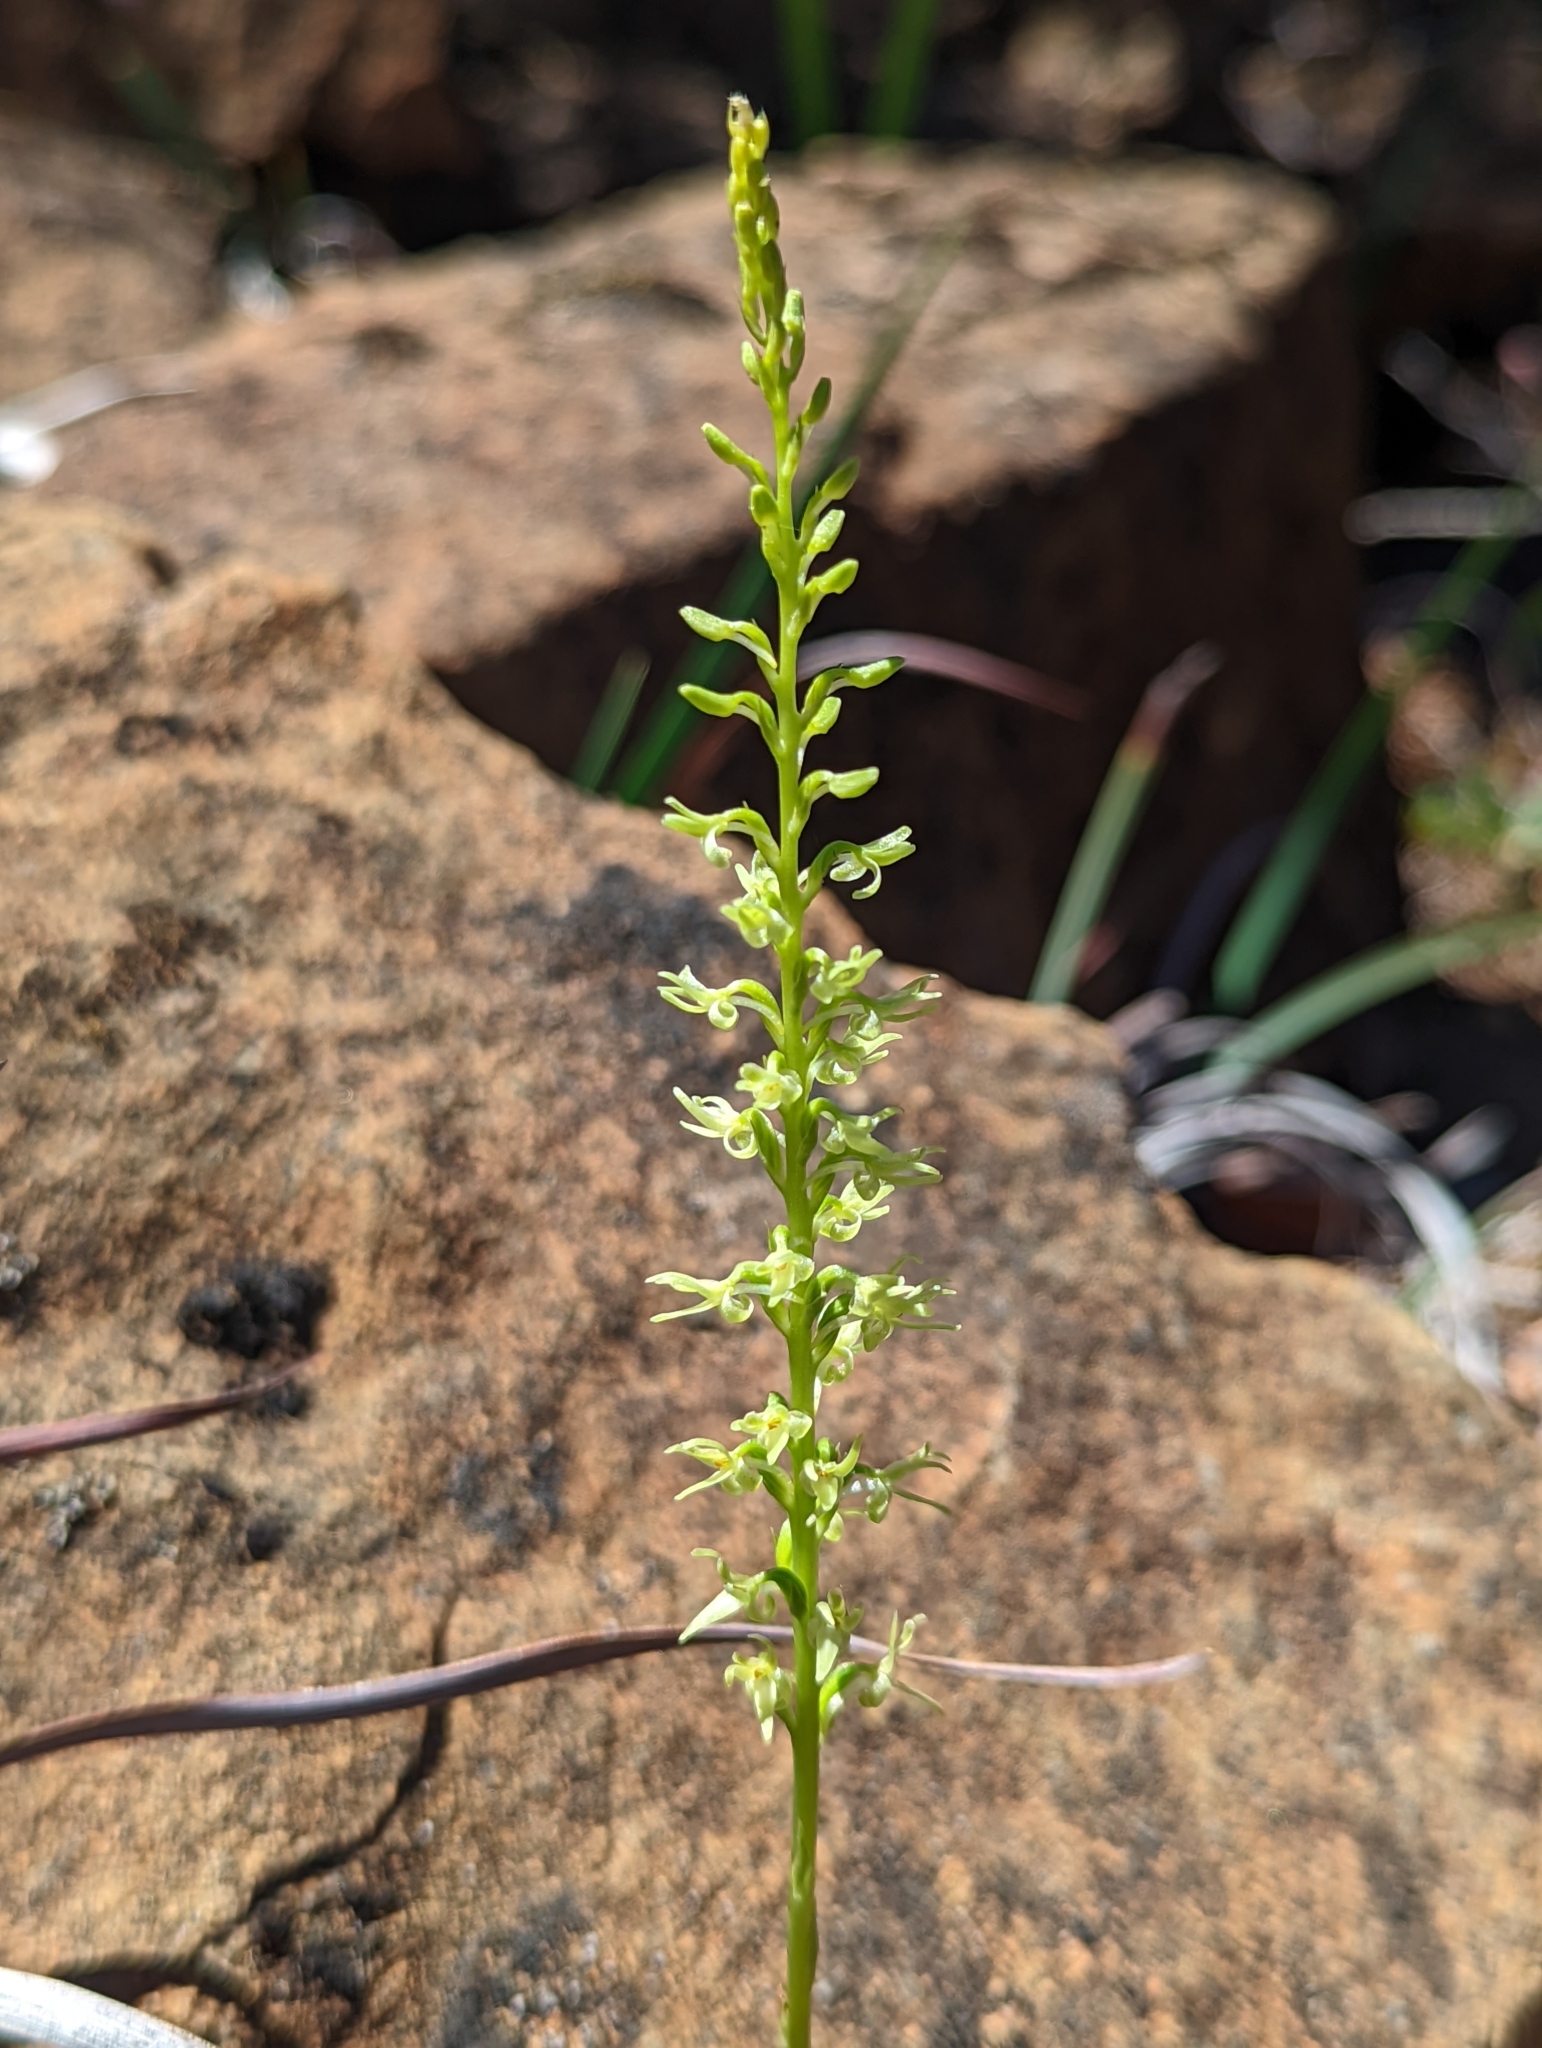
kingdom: Plantae
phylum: Tracheophyta
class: Liliopsida
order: Asparagales
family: Orchidaceae
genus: Platanthera
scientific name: Platanthera leptopetala
